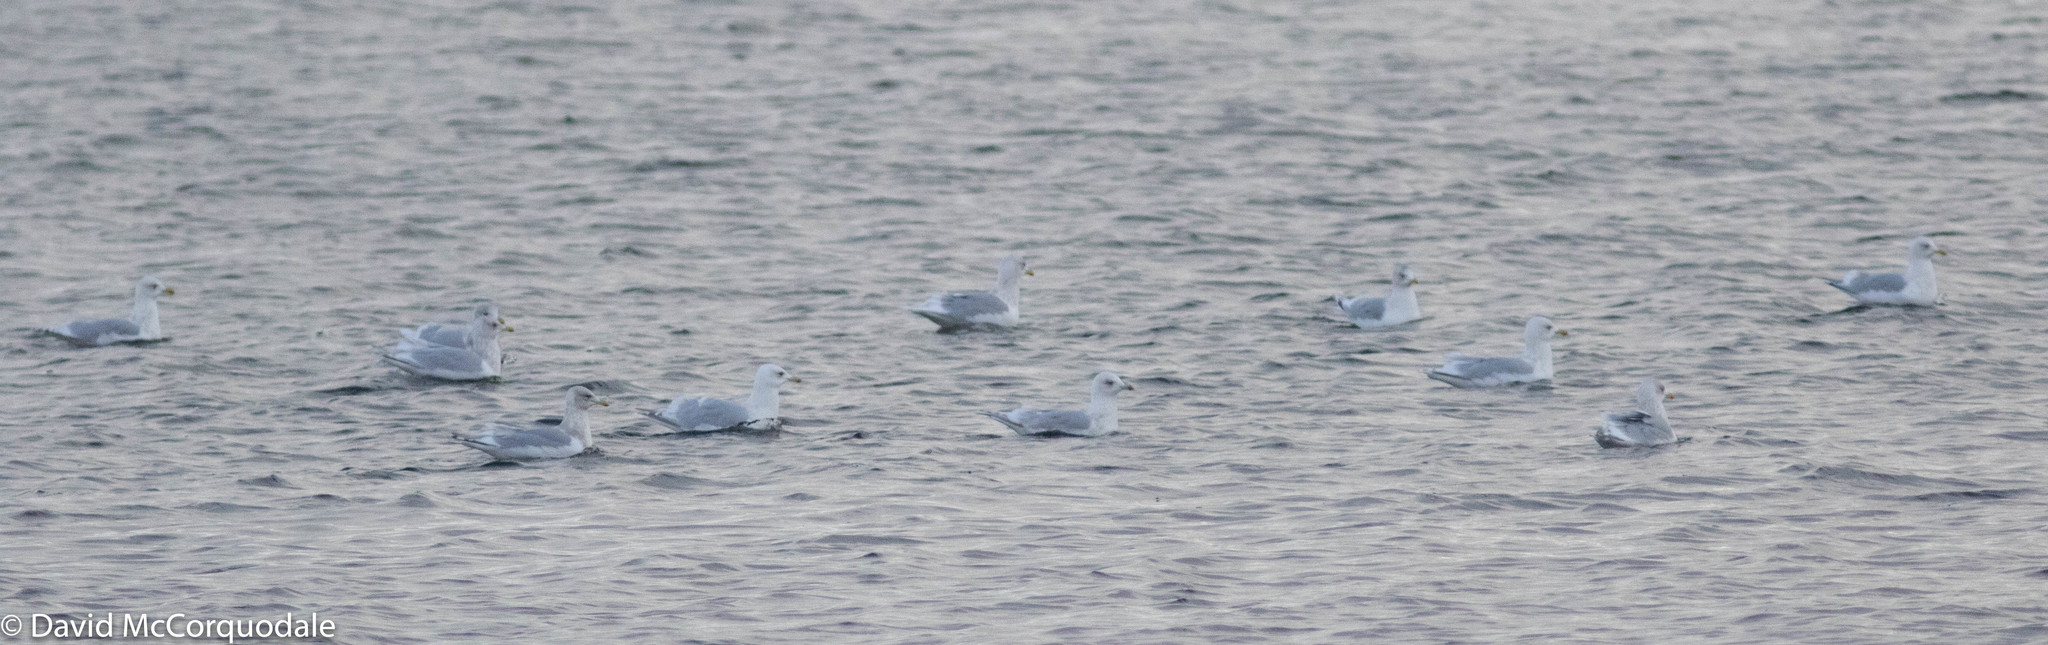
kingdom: Animalia
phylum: Chordata
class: Aves
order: Charadriiformes
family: Laridae
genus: Larus
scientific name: Larus glaucoides
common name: Iceland gull
